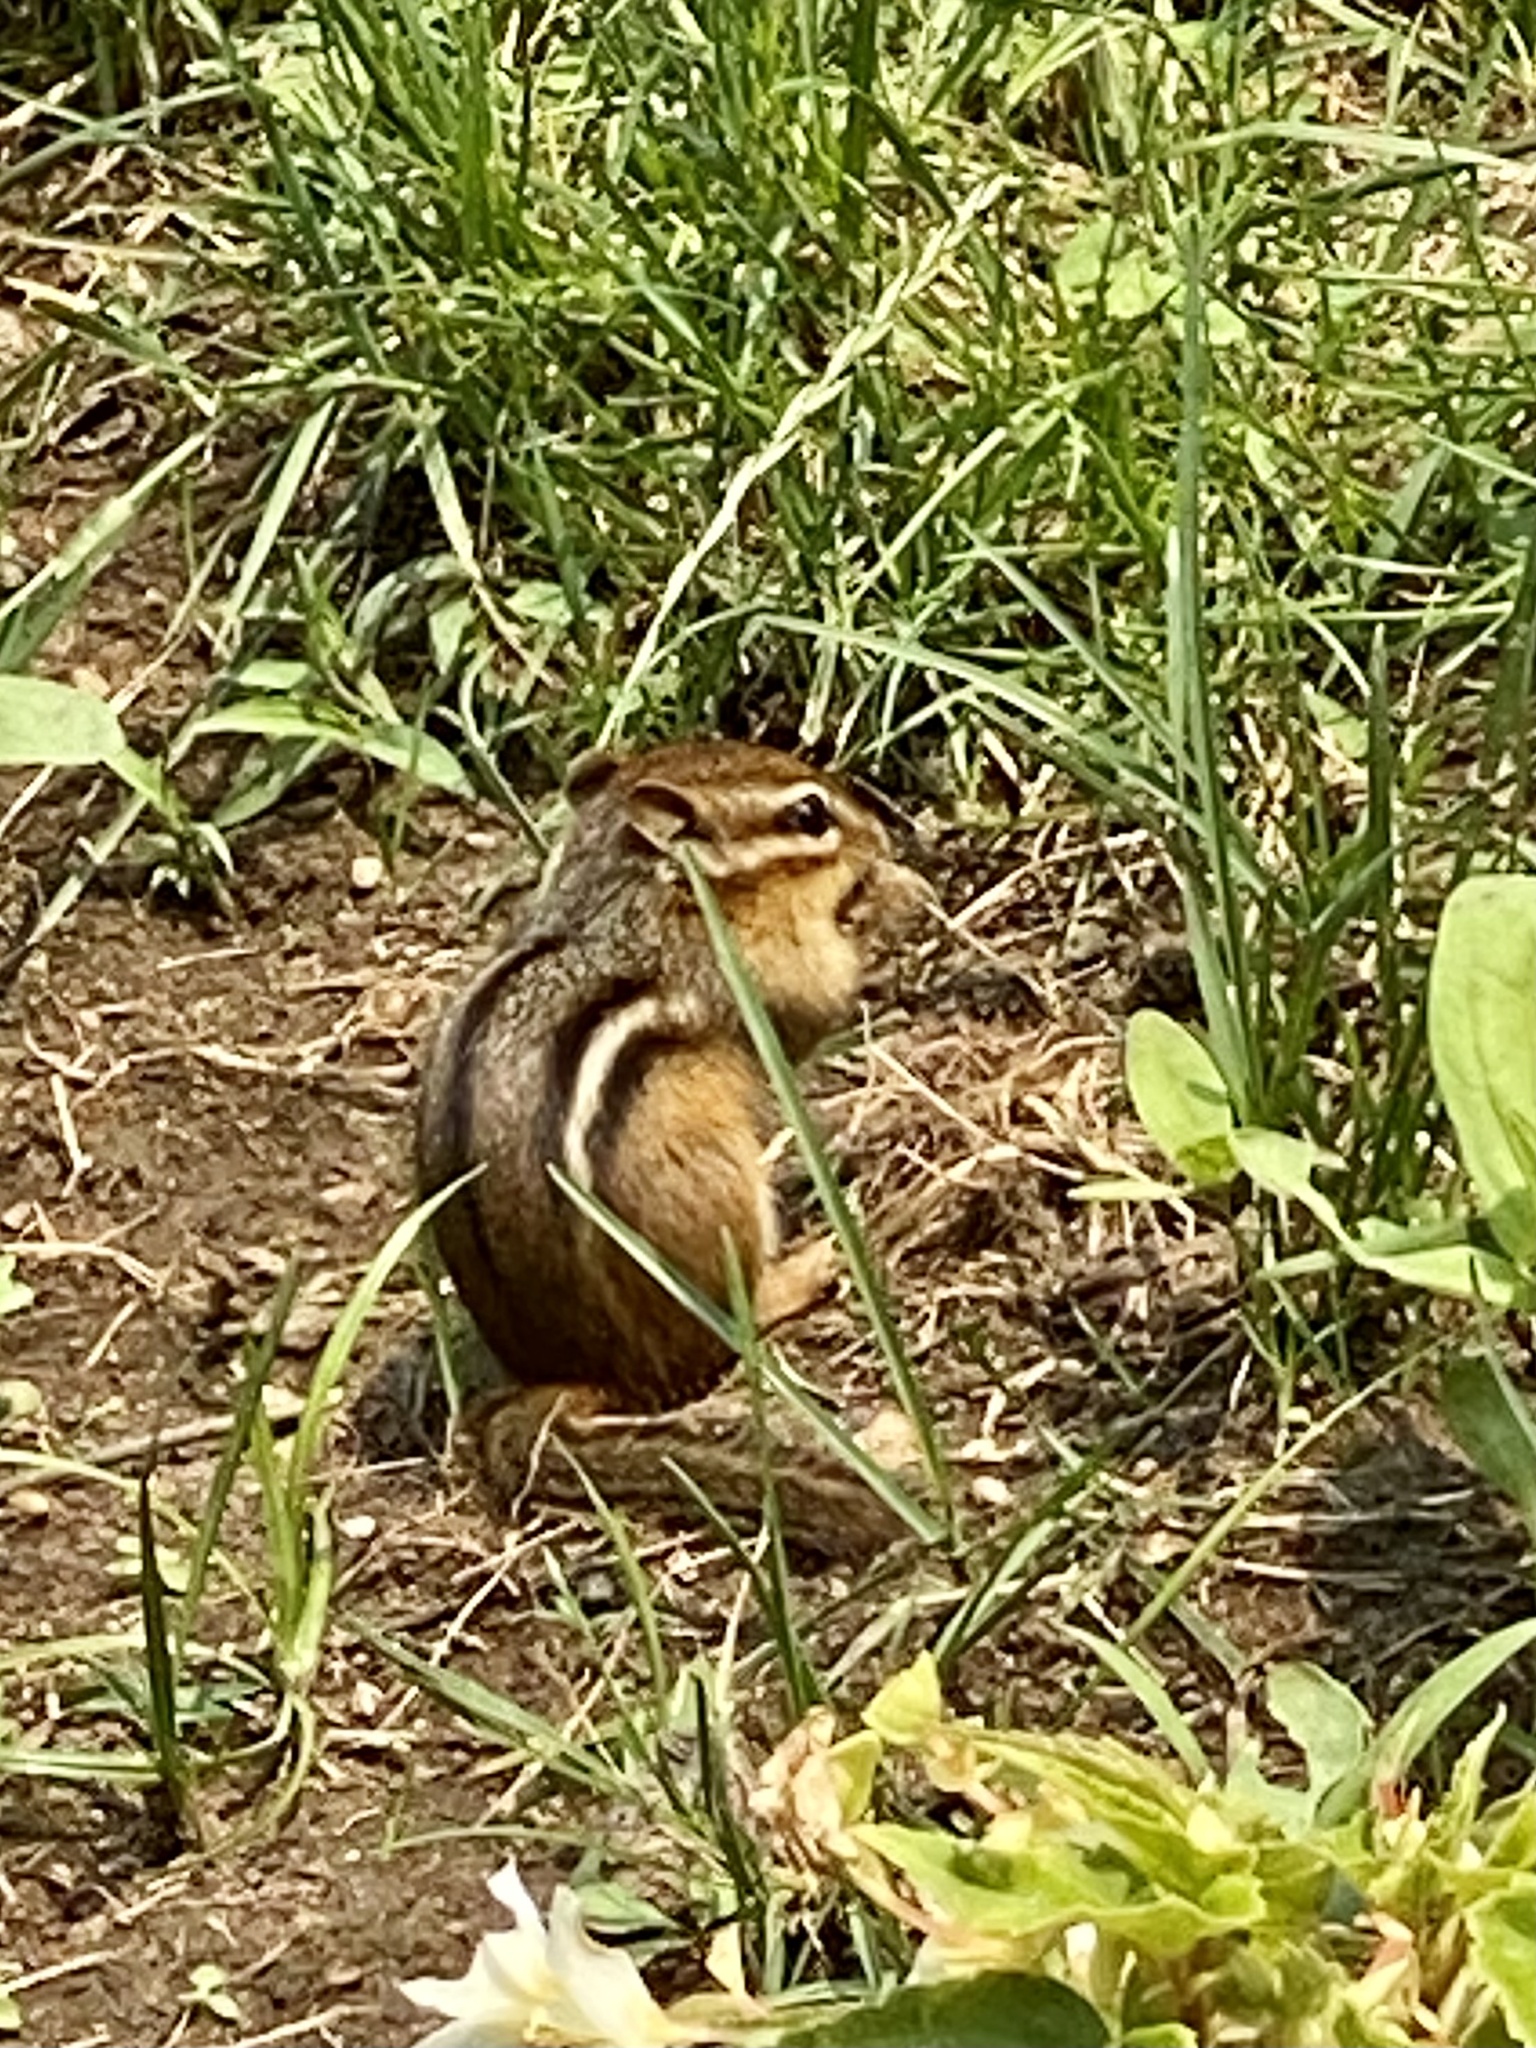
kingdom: Animalia
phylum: Chordata
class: Mammalia
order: Rodentia
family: Sciuridae
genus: Tamias
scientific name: Tamias striatus
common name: Eastern chipmunk
